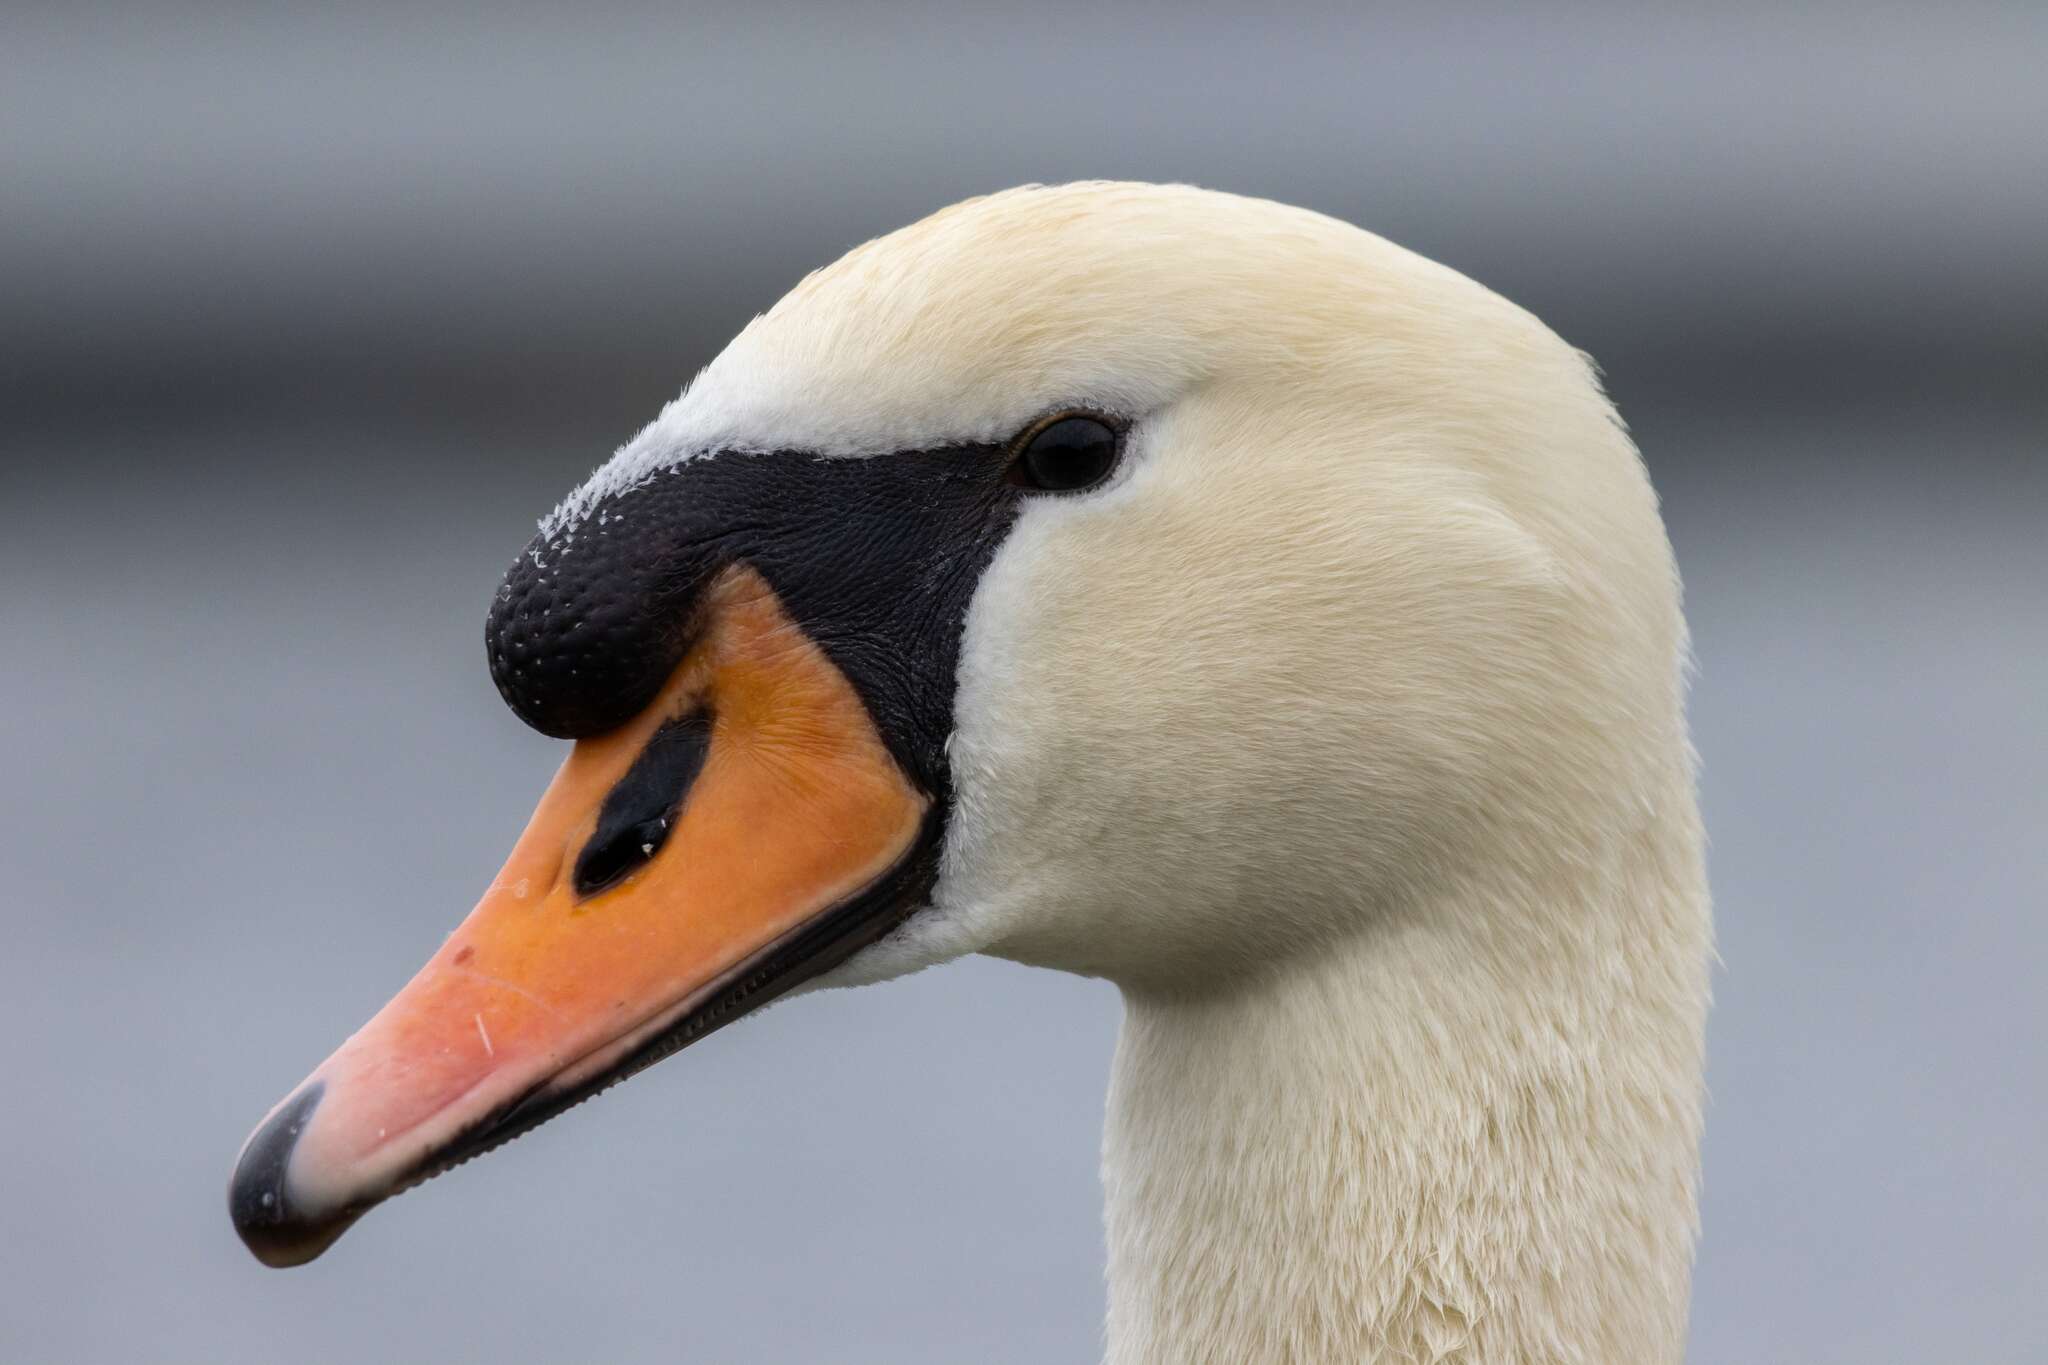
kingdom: Animalia
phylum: Chordata
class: Aves
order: Anseriformes
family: Anatidae
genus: Cygnus
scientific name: Cygnus olor
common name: Mute swan
